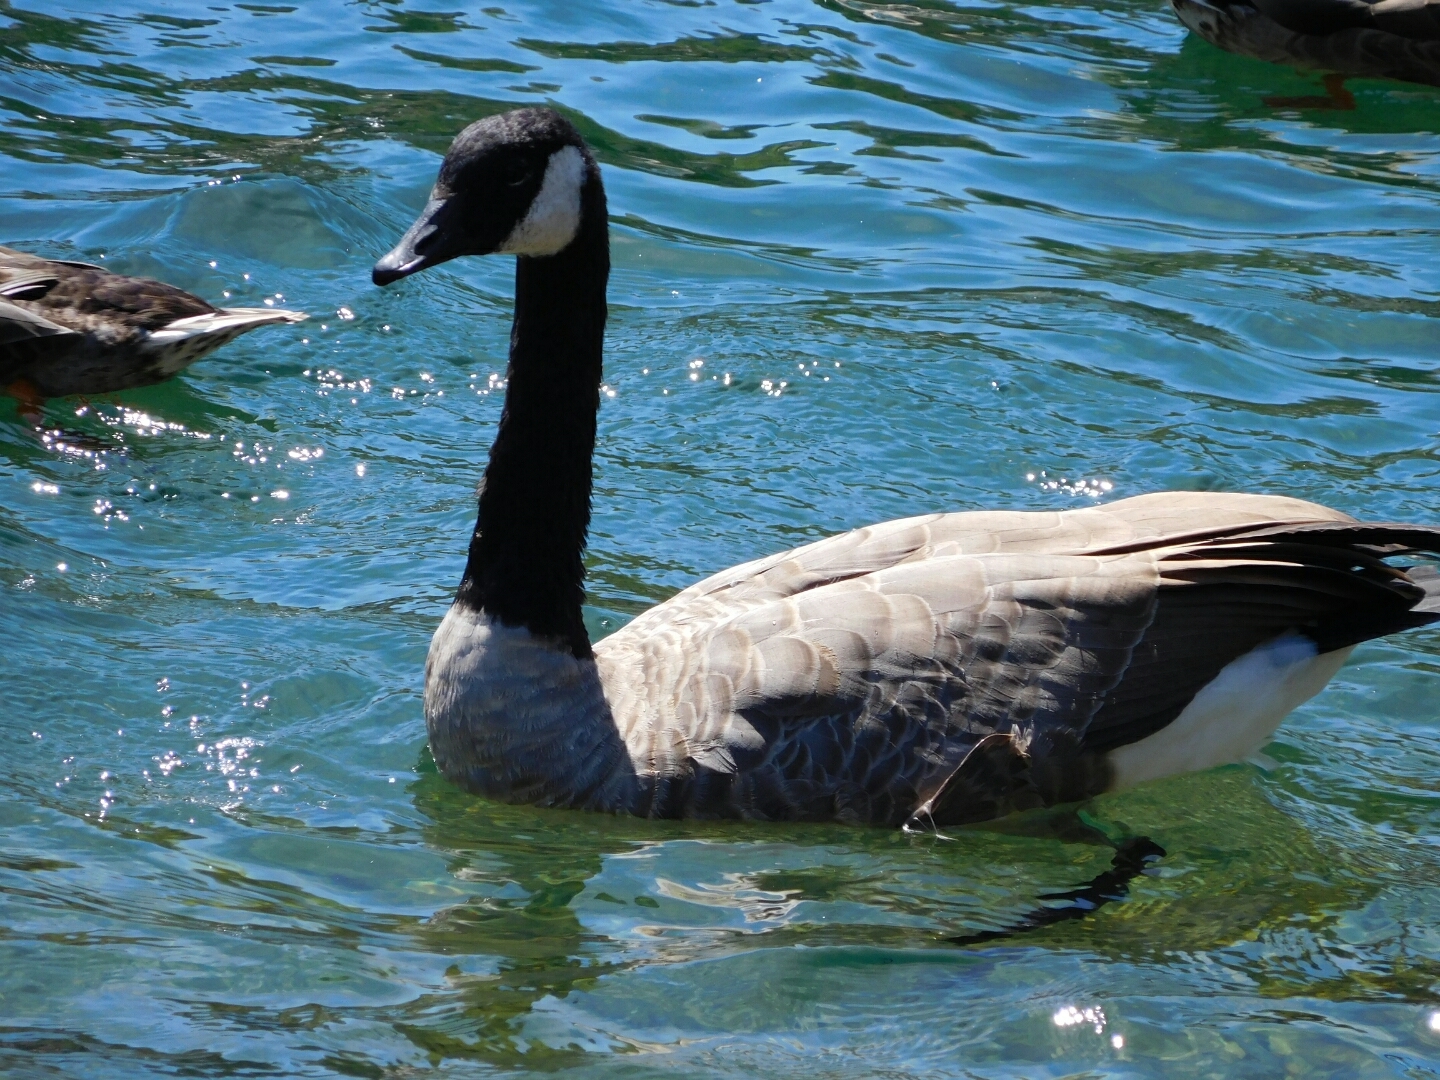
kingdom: Animalia
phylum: Chordata
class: Aves
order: Anseriformes
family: Anatidae
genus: Branta
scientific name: Branta canadensis
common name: Canada goose
